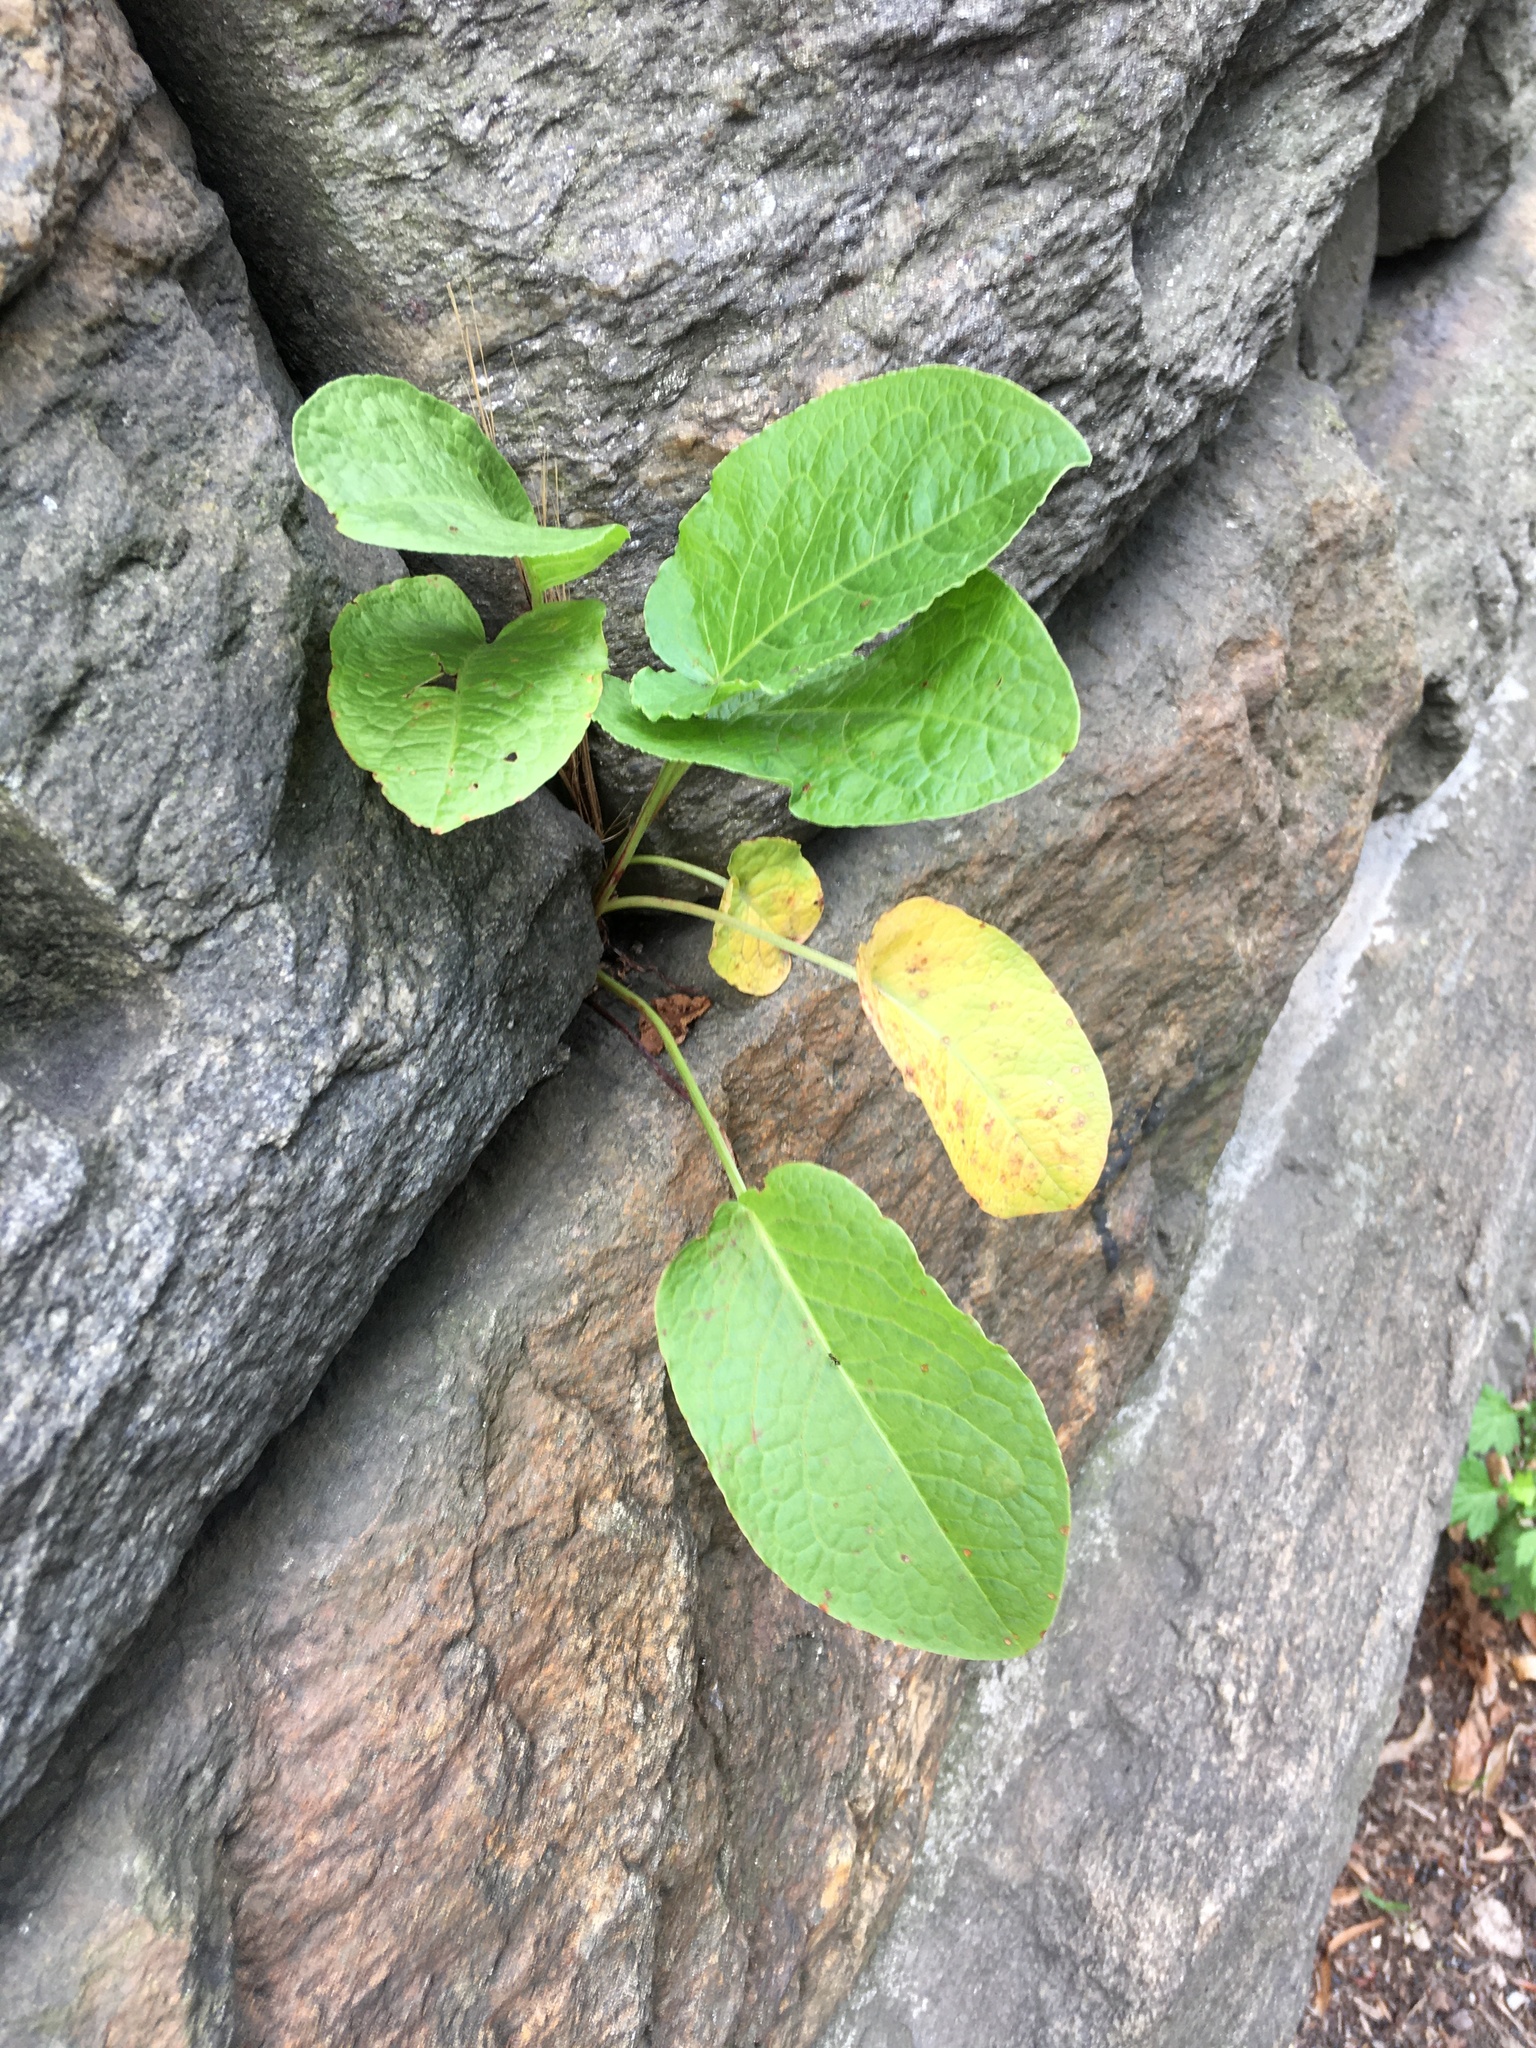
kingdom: Plantae
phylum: Tracheophyta
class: Magnoliopsida
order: Caryophyllales
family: Polygonaceae
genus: Rumex
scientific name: Rumex obtusifolius
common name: Bitter dock
